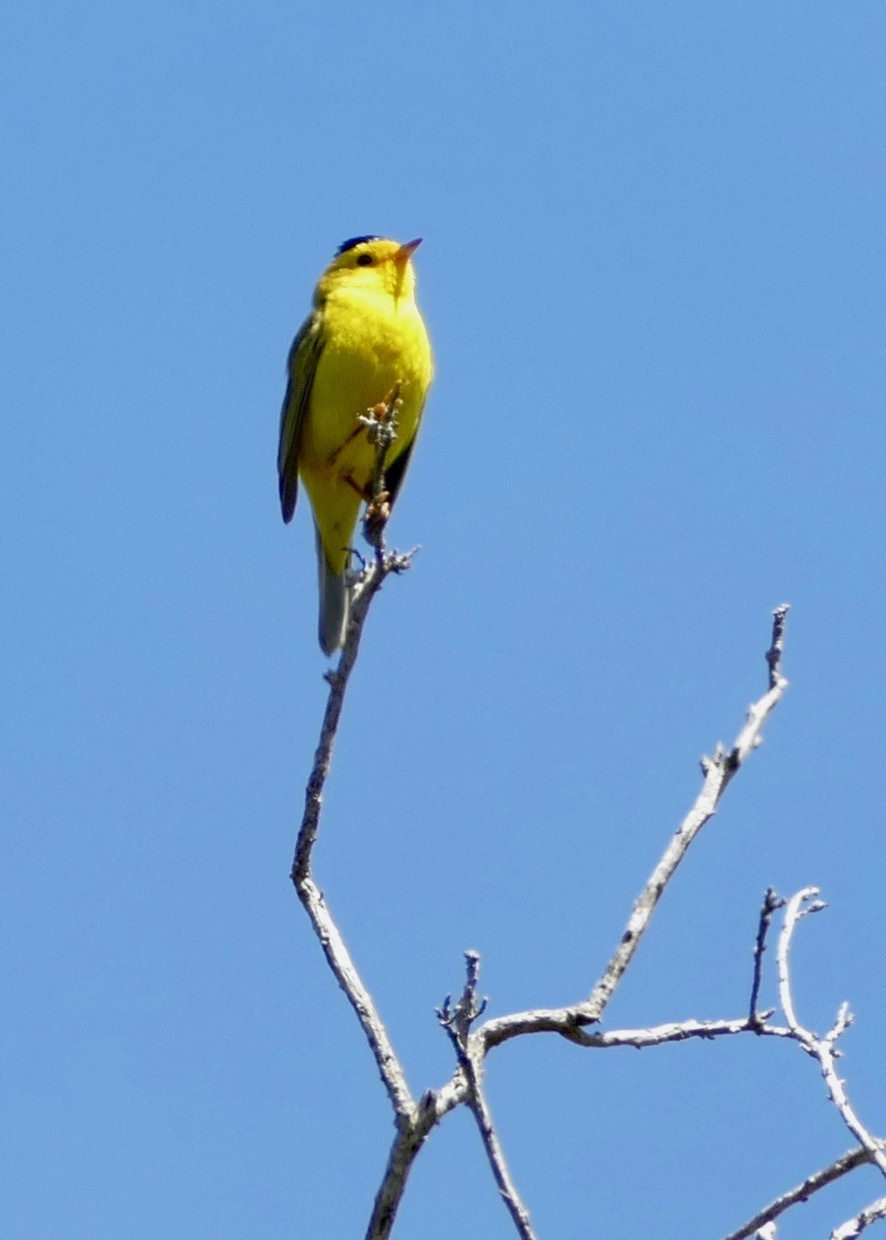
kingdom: Animalia
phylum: Chordata
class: Aves
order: Passeriformes
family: Parulidae
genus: Cardellina
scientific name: Cardellina pusilla
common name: Wilson's warbler
